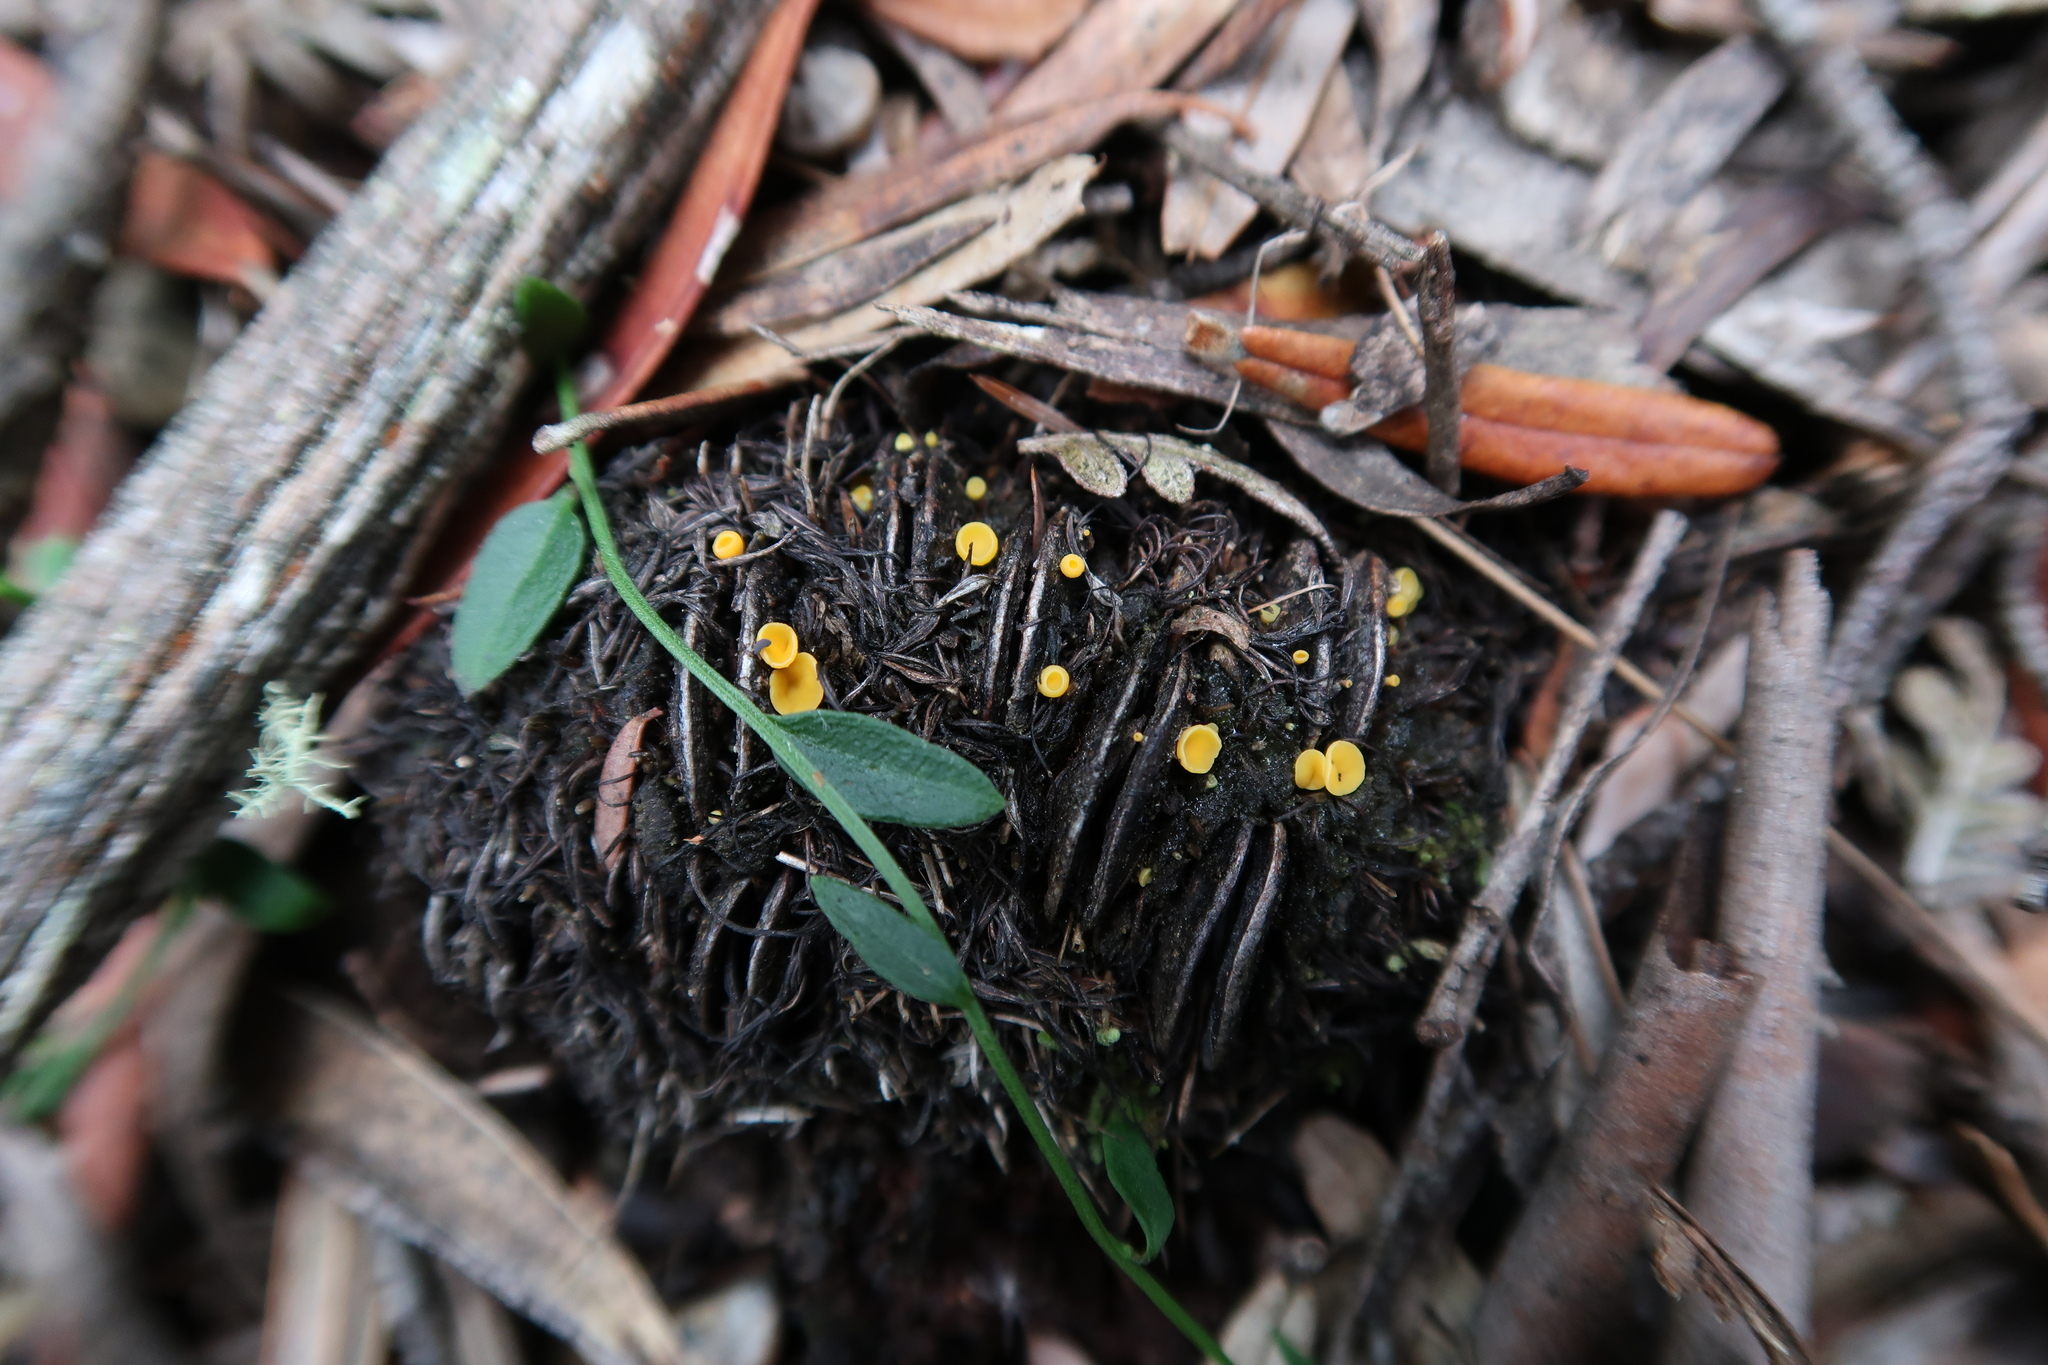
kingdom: Fungi
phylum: Ascomycota
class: Leotiomycetes
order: Helotiales
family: Helotiaceae
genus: Phaeohelotium
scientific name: Phaeohelotium baileyanum
